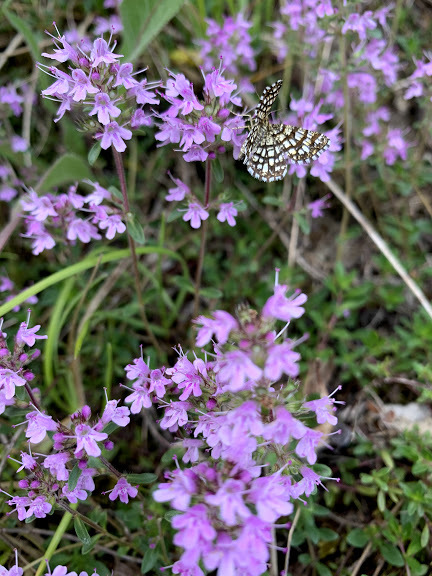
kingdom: Animalia
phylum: Arthropoda
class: Insecta
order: Lepidoptera
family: Geometridae
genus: Chiasmia
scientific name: Chiasmia clathrata
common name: Latticed heath
